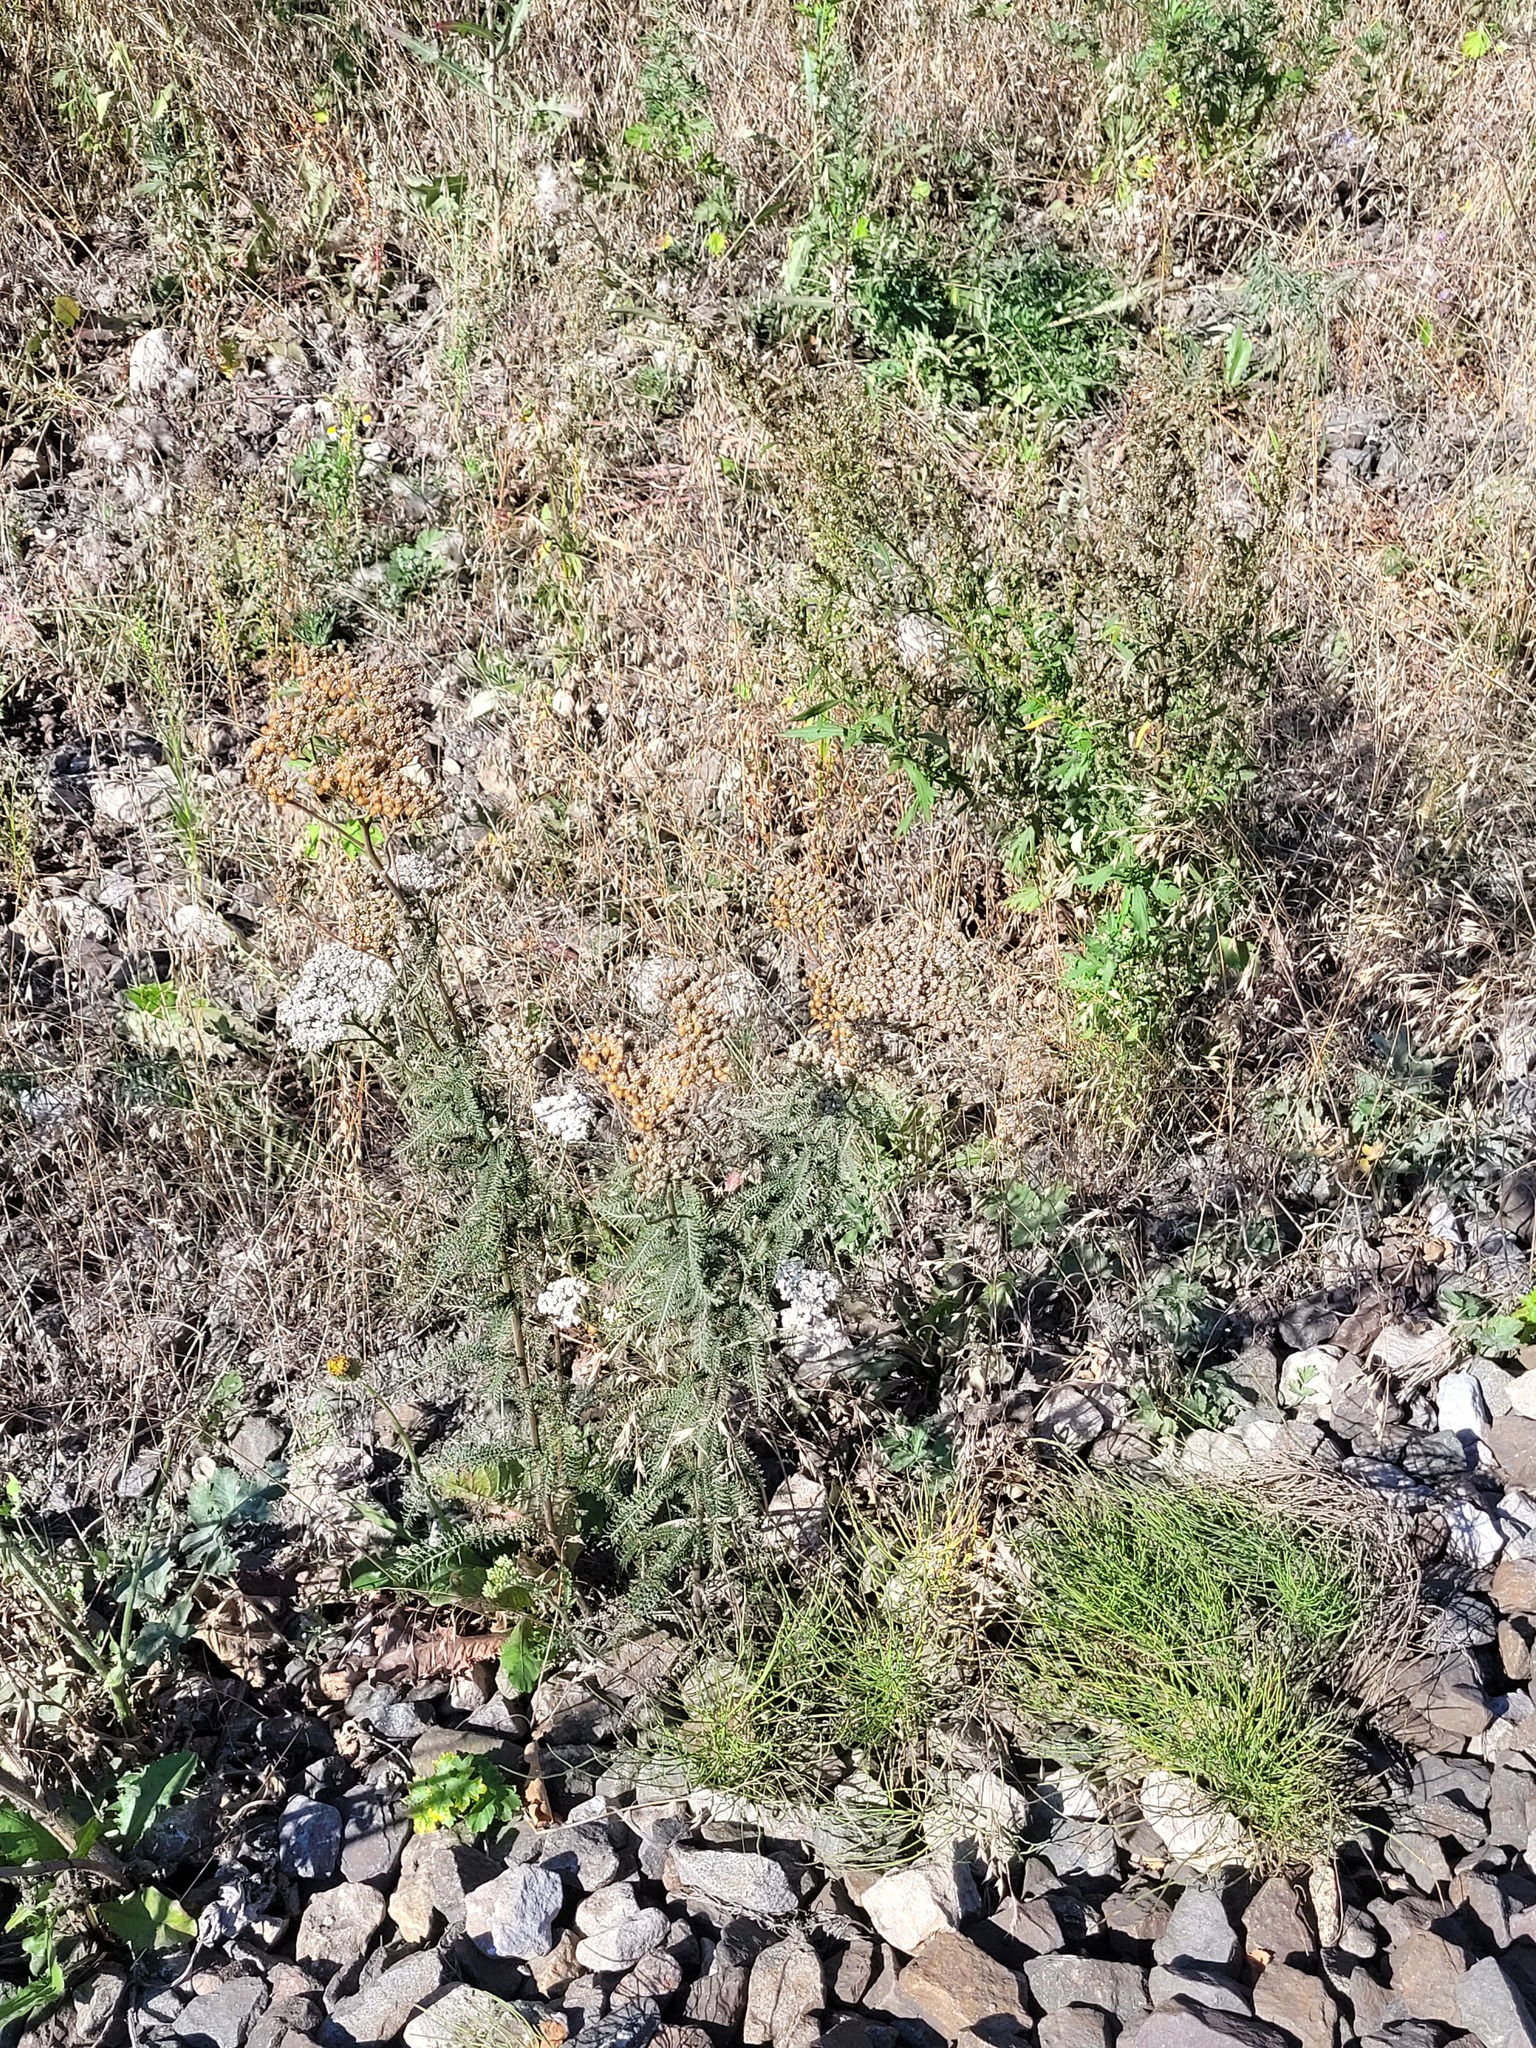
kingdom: Plantae
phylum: Tracheophyta
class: Magnoliopsida
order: Asterales
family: Asteraceae
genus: Achillea
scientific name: Achillea millefolium
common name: Yarrow
